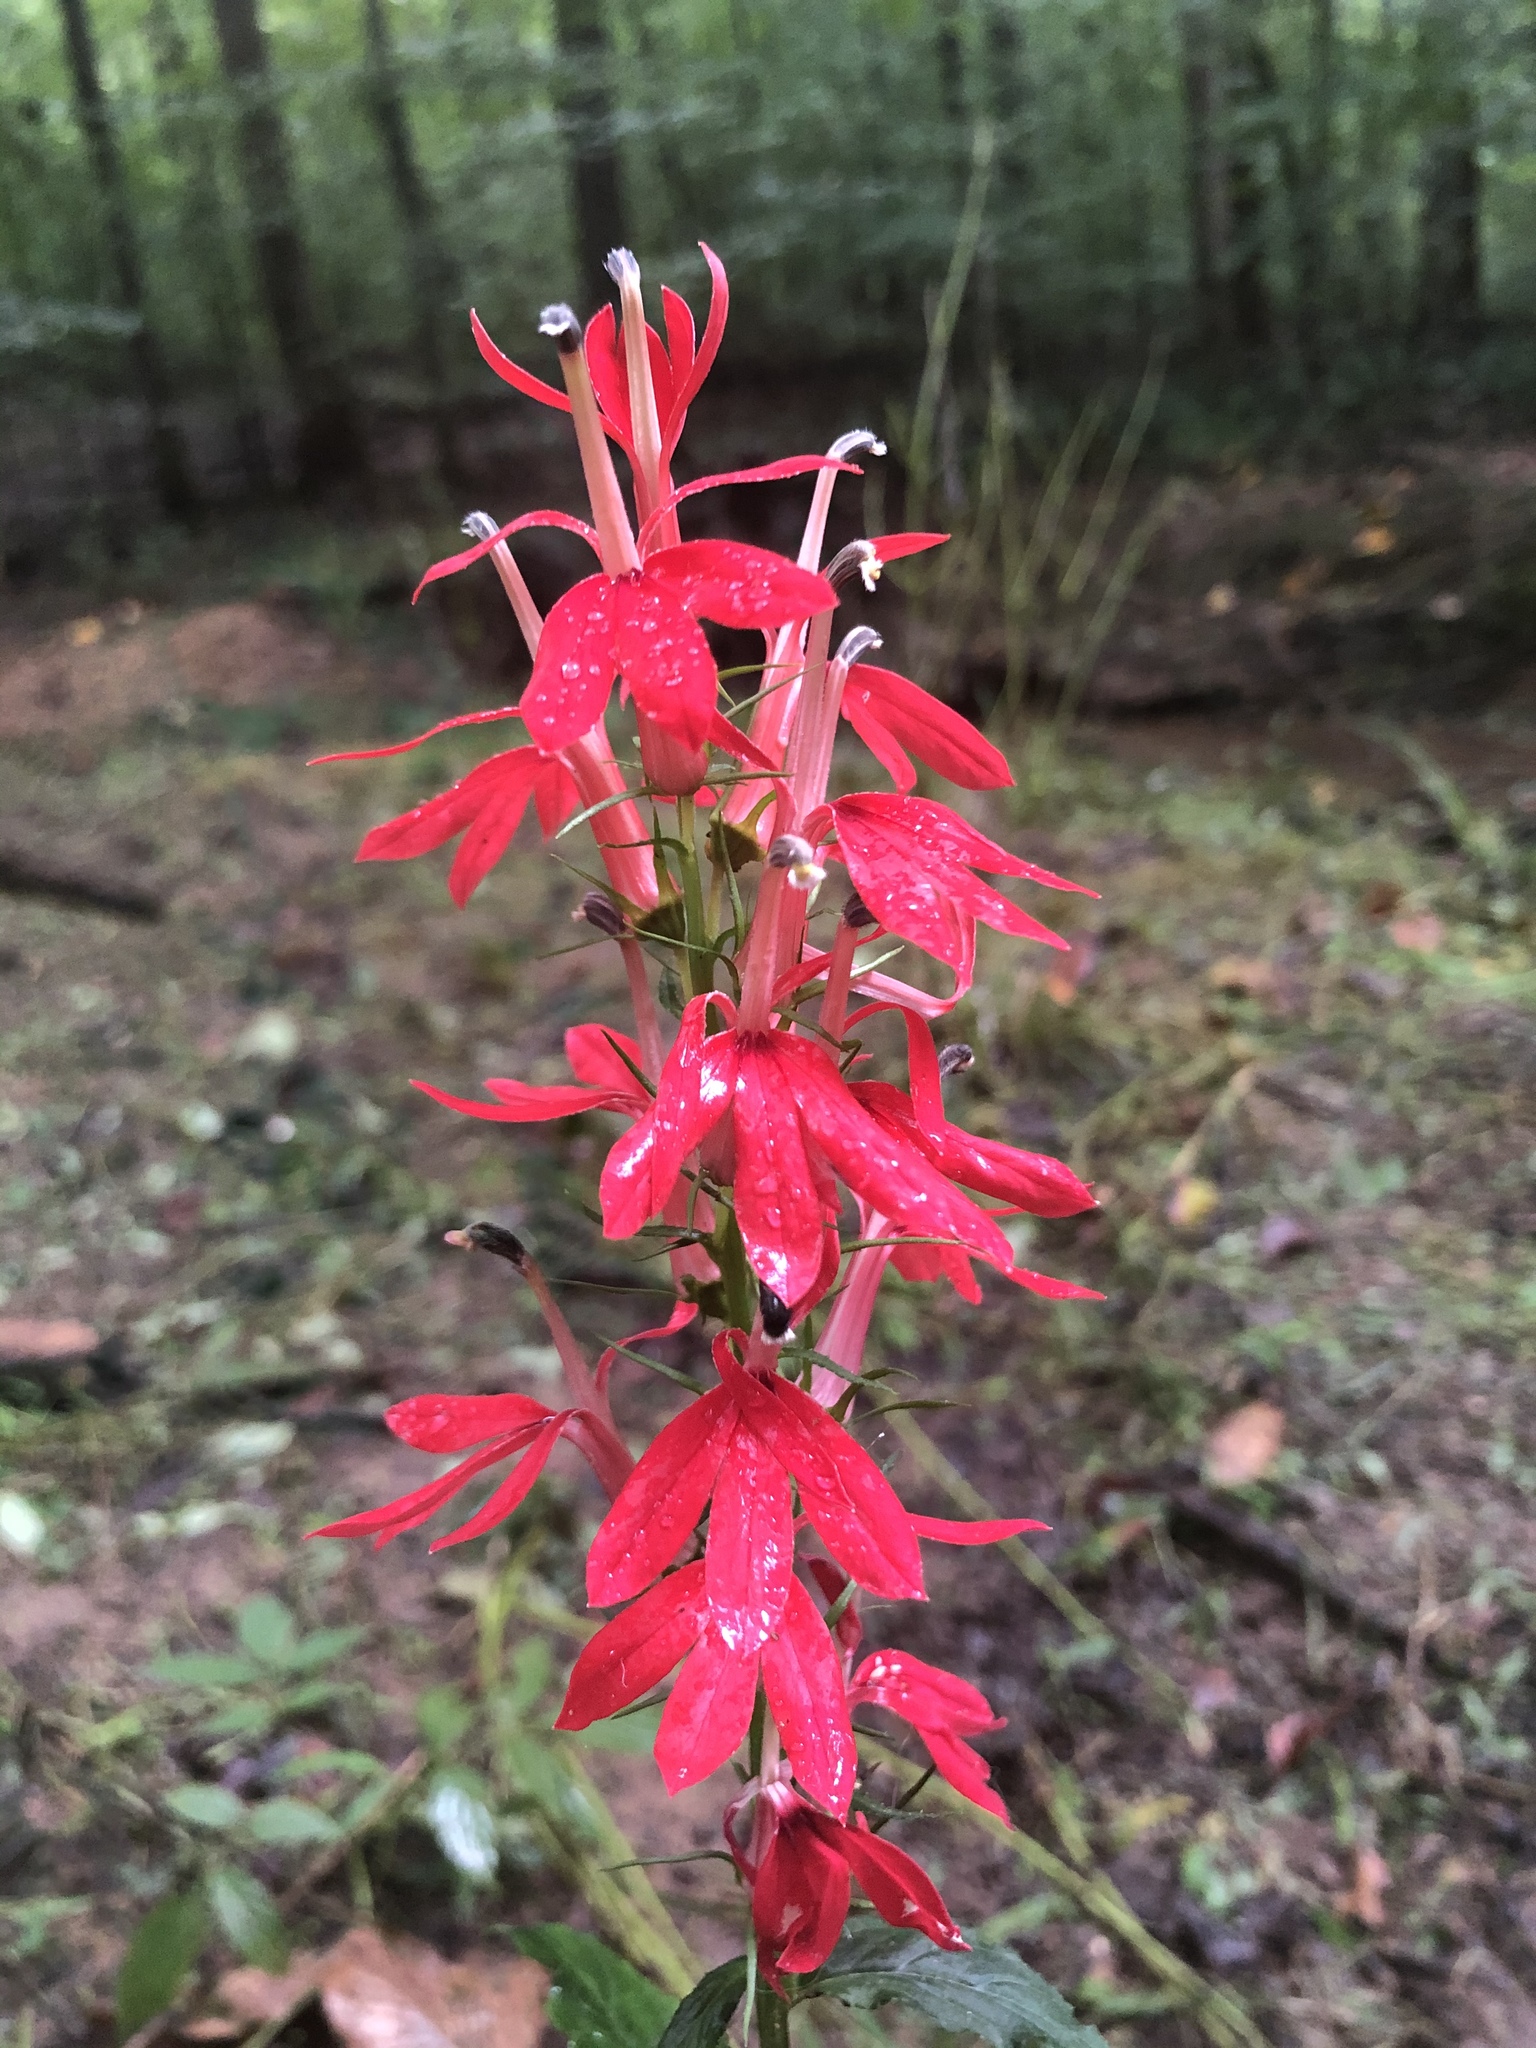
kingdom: Plantae
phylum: Tracheophyta
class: Magnoliopsida
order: Asterales
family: Campanulaceae
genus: Lobelia
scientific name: Lobelia cardinalis
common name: Cardinal flower
